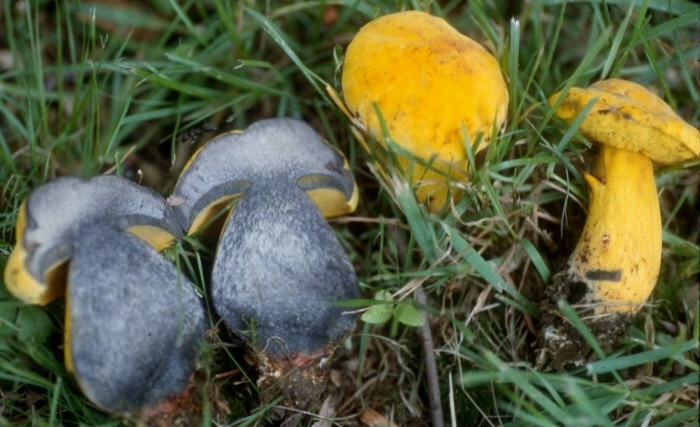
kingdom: Fungi
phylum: Basidiomycota
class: Agaricomycetes
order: Boletales
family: Boletaceae
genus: Neoboletus
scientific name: Neoboletus praestigiator
